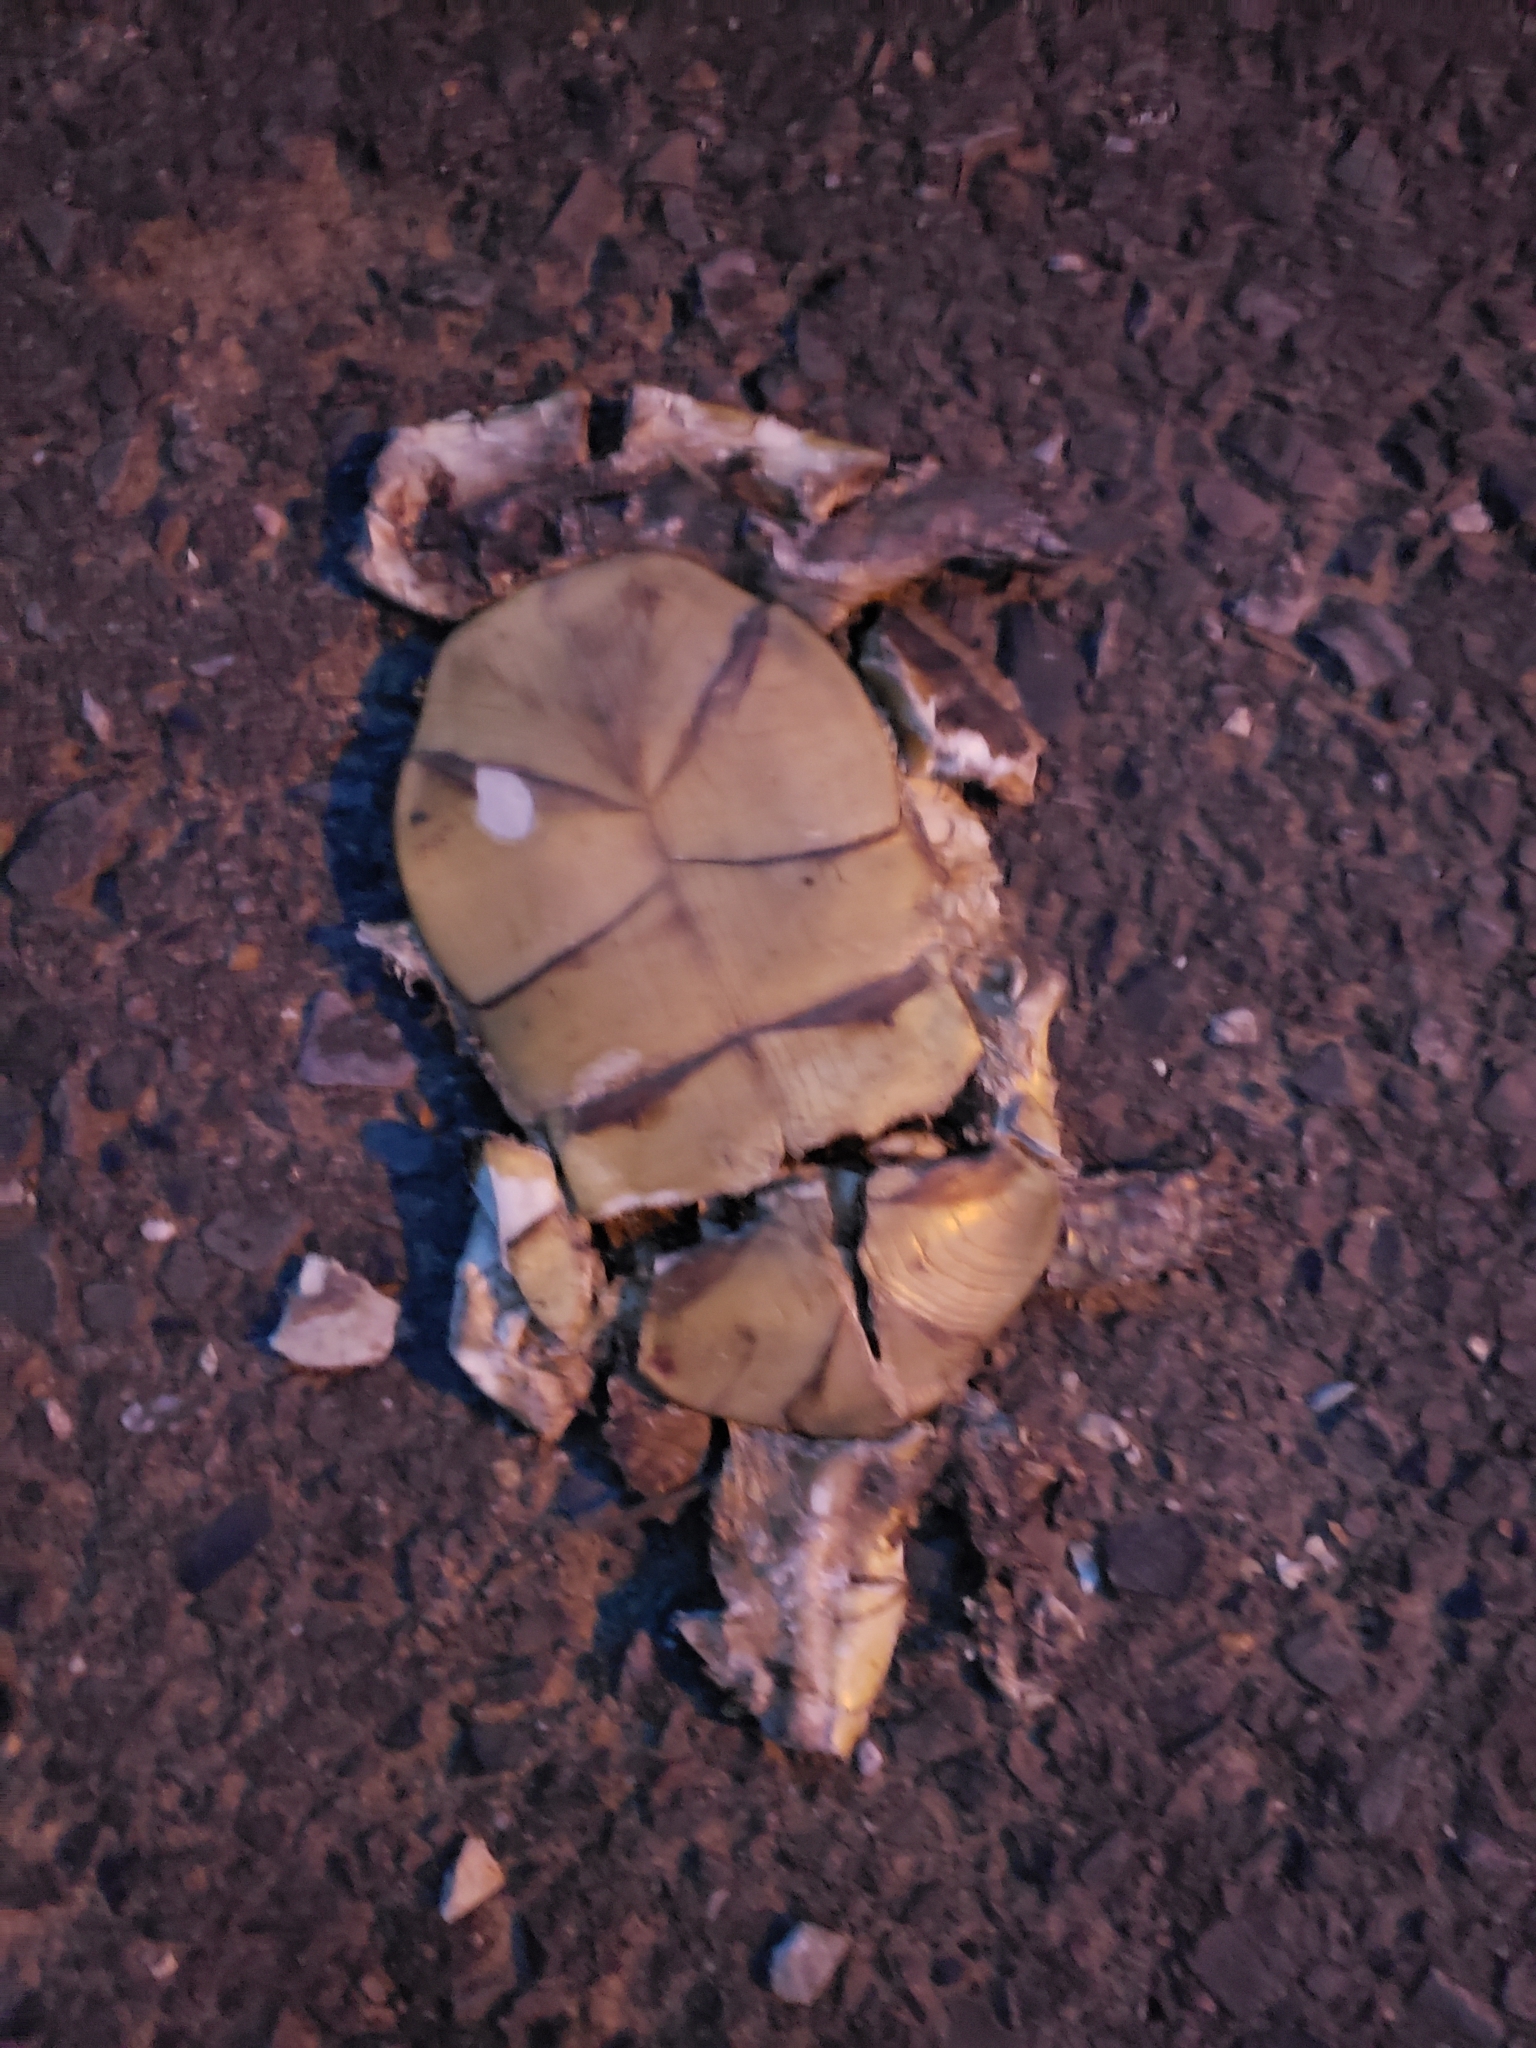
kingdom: Animalia
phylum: Chordata
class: Testudines
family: Emydidae
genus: Terrapene
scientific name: Terrapene carolina
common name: Common box turtle
